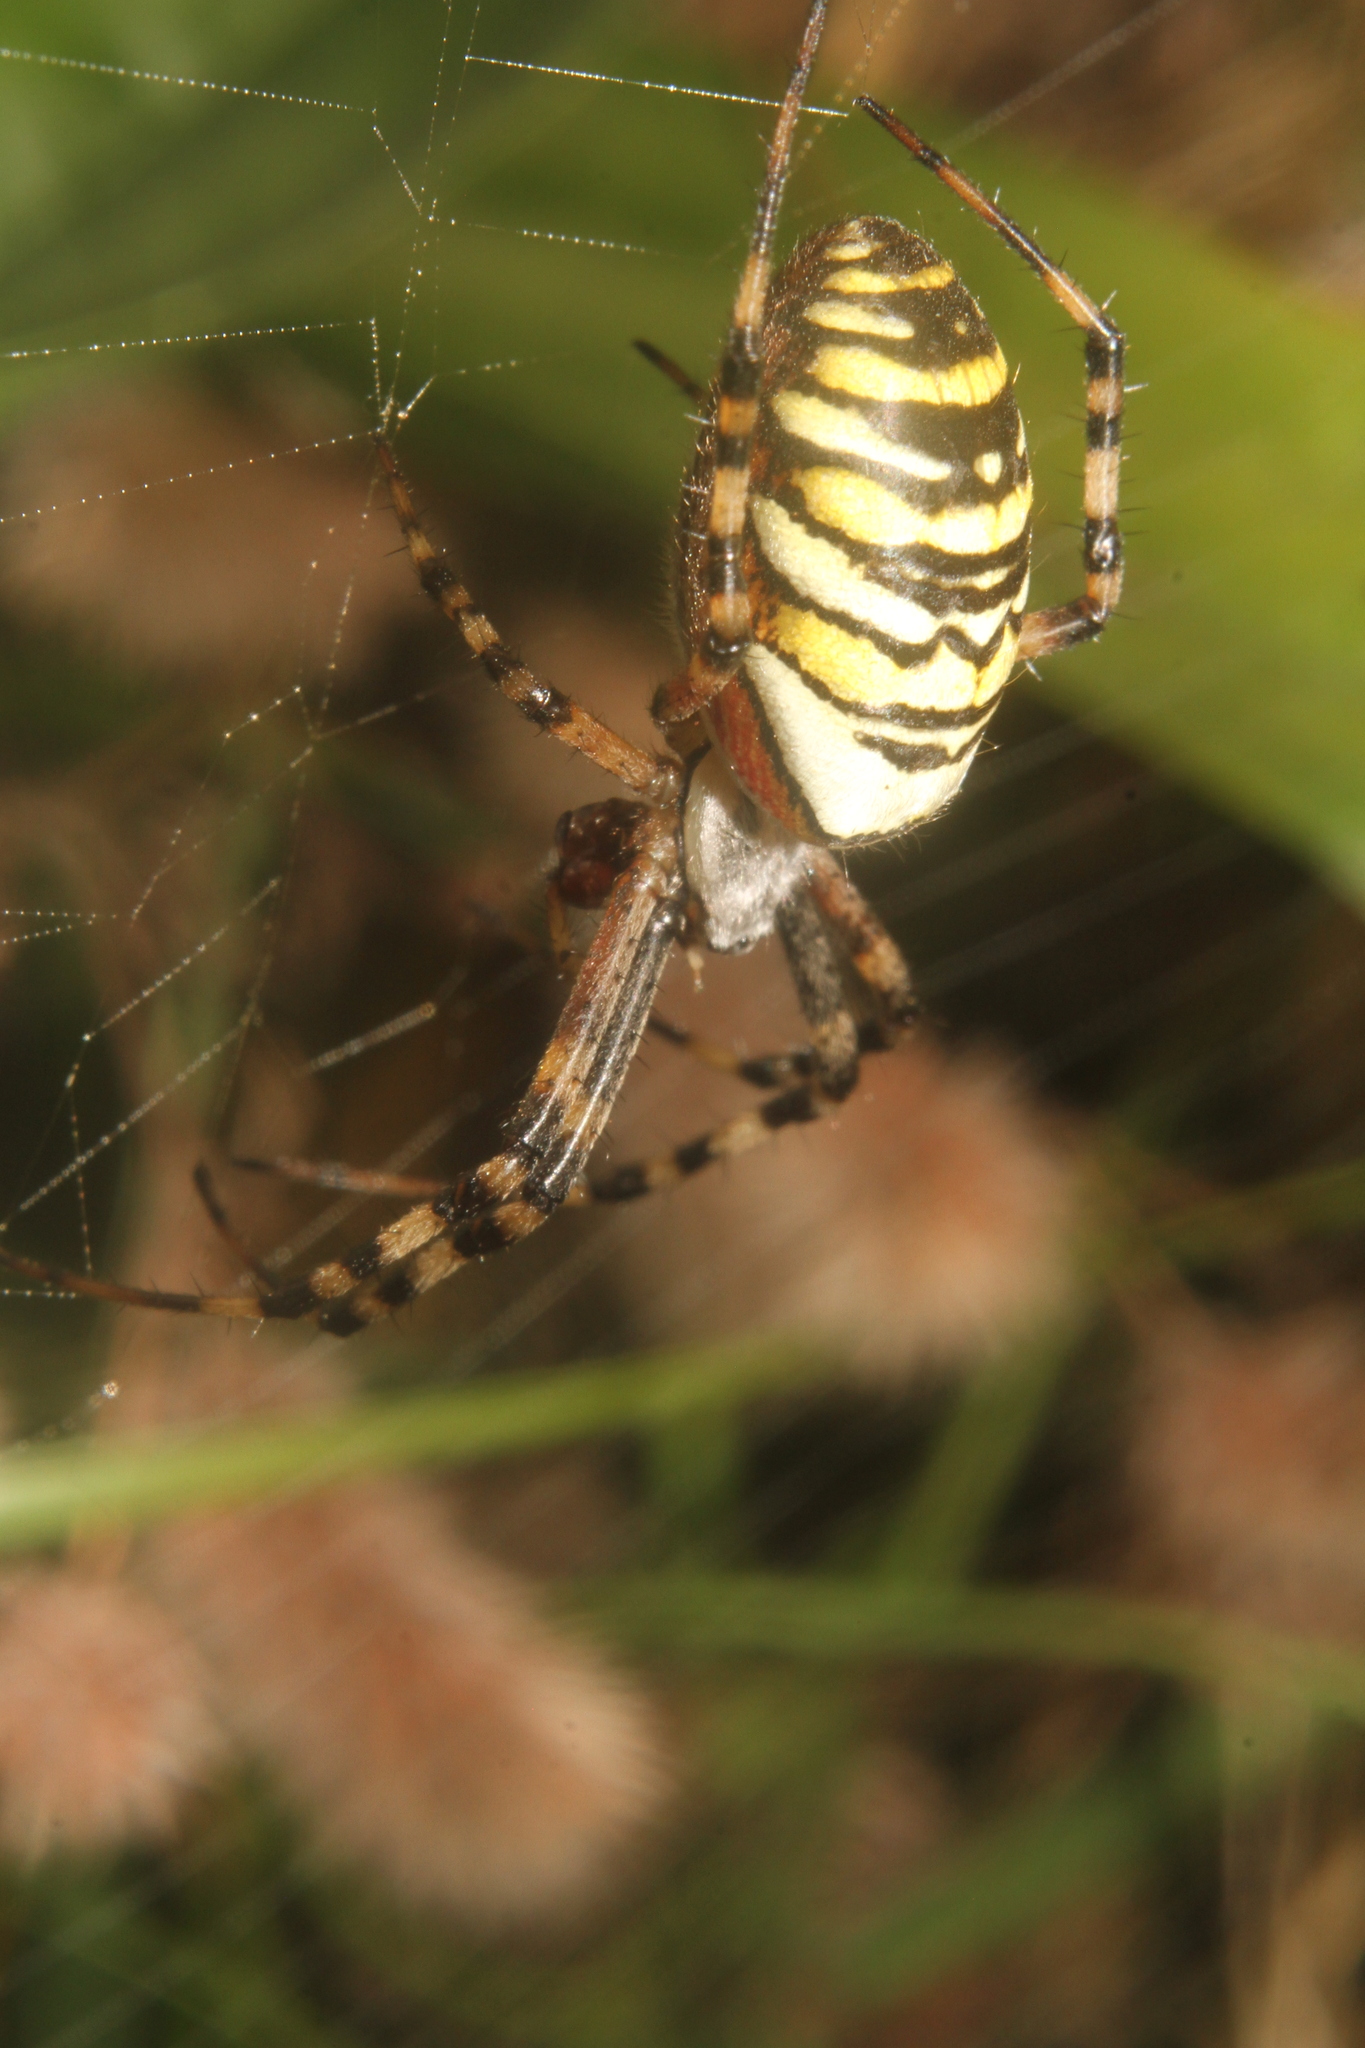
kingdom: Animalia
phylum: Arthropoda
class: Arachnida
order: Araneae
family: Araneidae
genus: Argiope
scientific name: Argiope bruennichi
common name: Wasp spider
